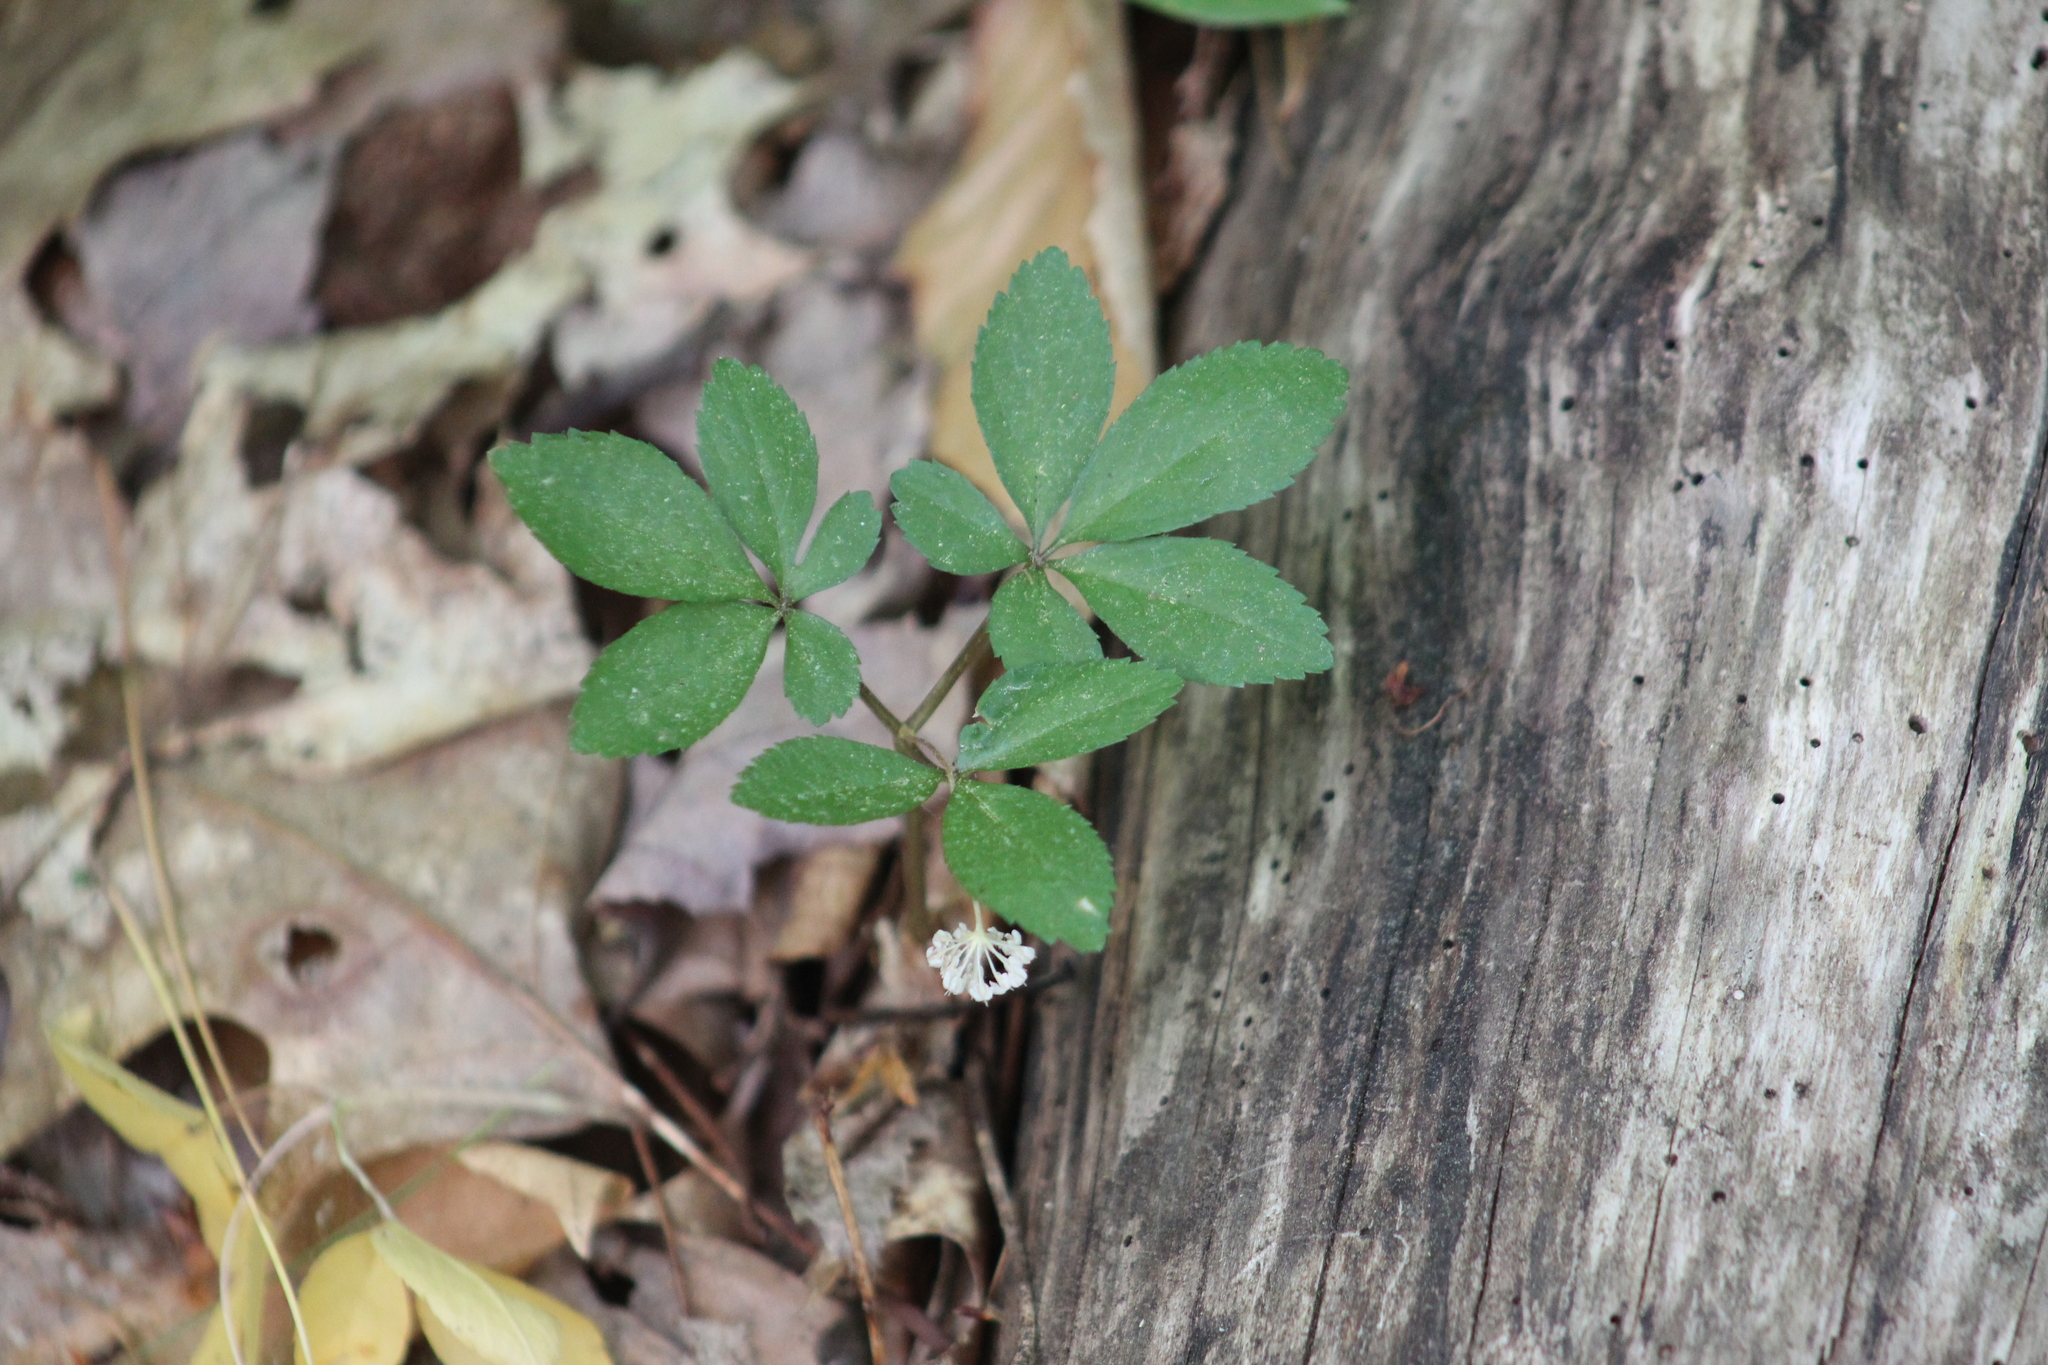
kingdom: Plantae
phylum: Tracheophyta
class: Magnoliopsida
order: Apiales
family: Araliaceae
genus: Panax
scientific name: Panax trifolius
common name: Dwarf ginseng
